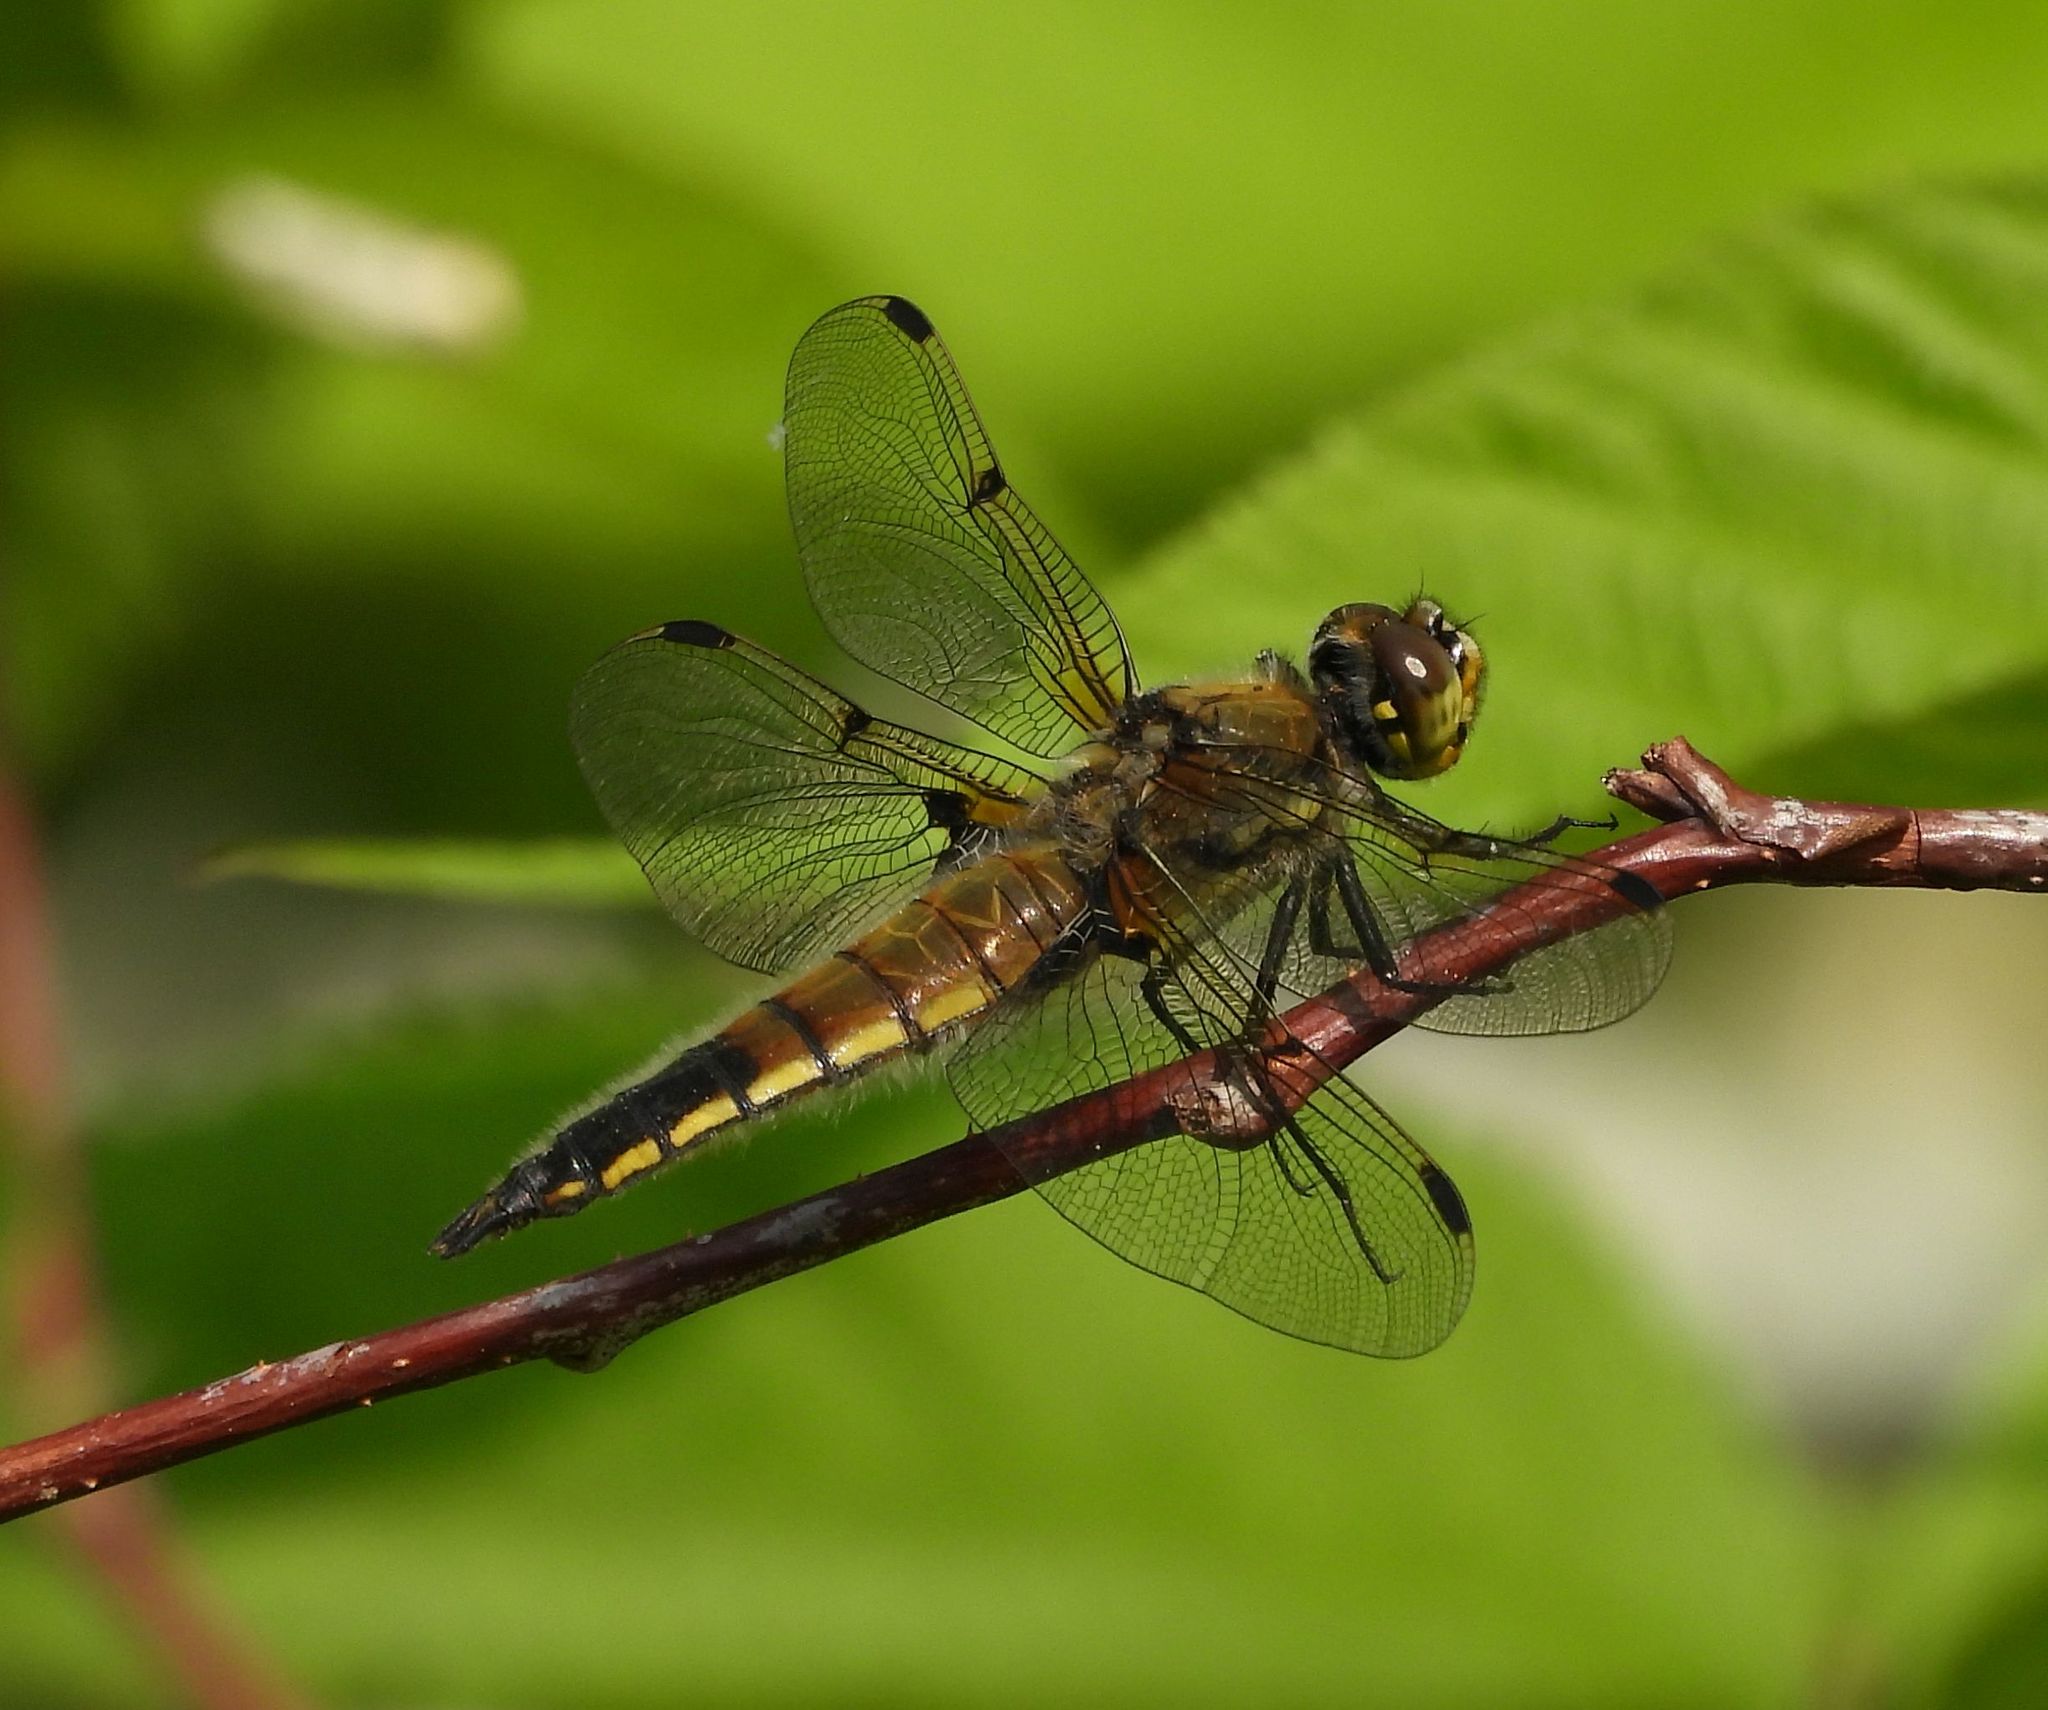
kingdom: Animalia
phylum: Arthropoda
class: Insecta
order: Odonata
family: Libellulidae
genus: Libellula
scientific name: Libellula quadrimaculata
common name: Four-spotted chaser
